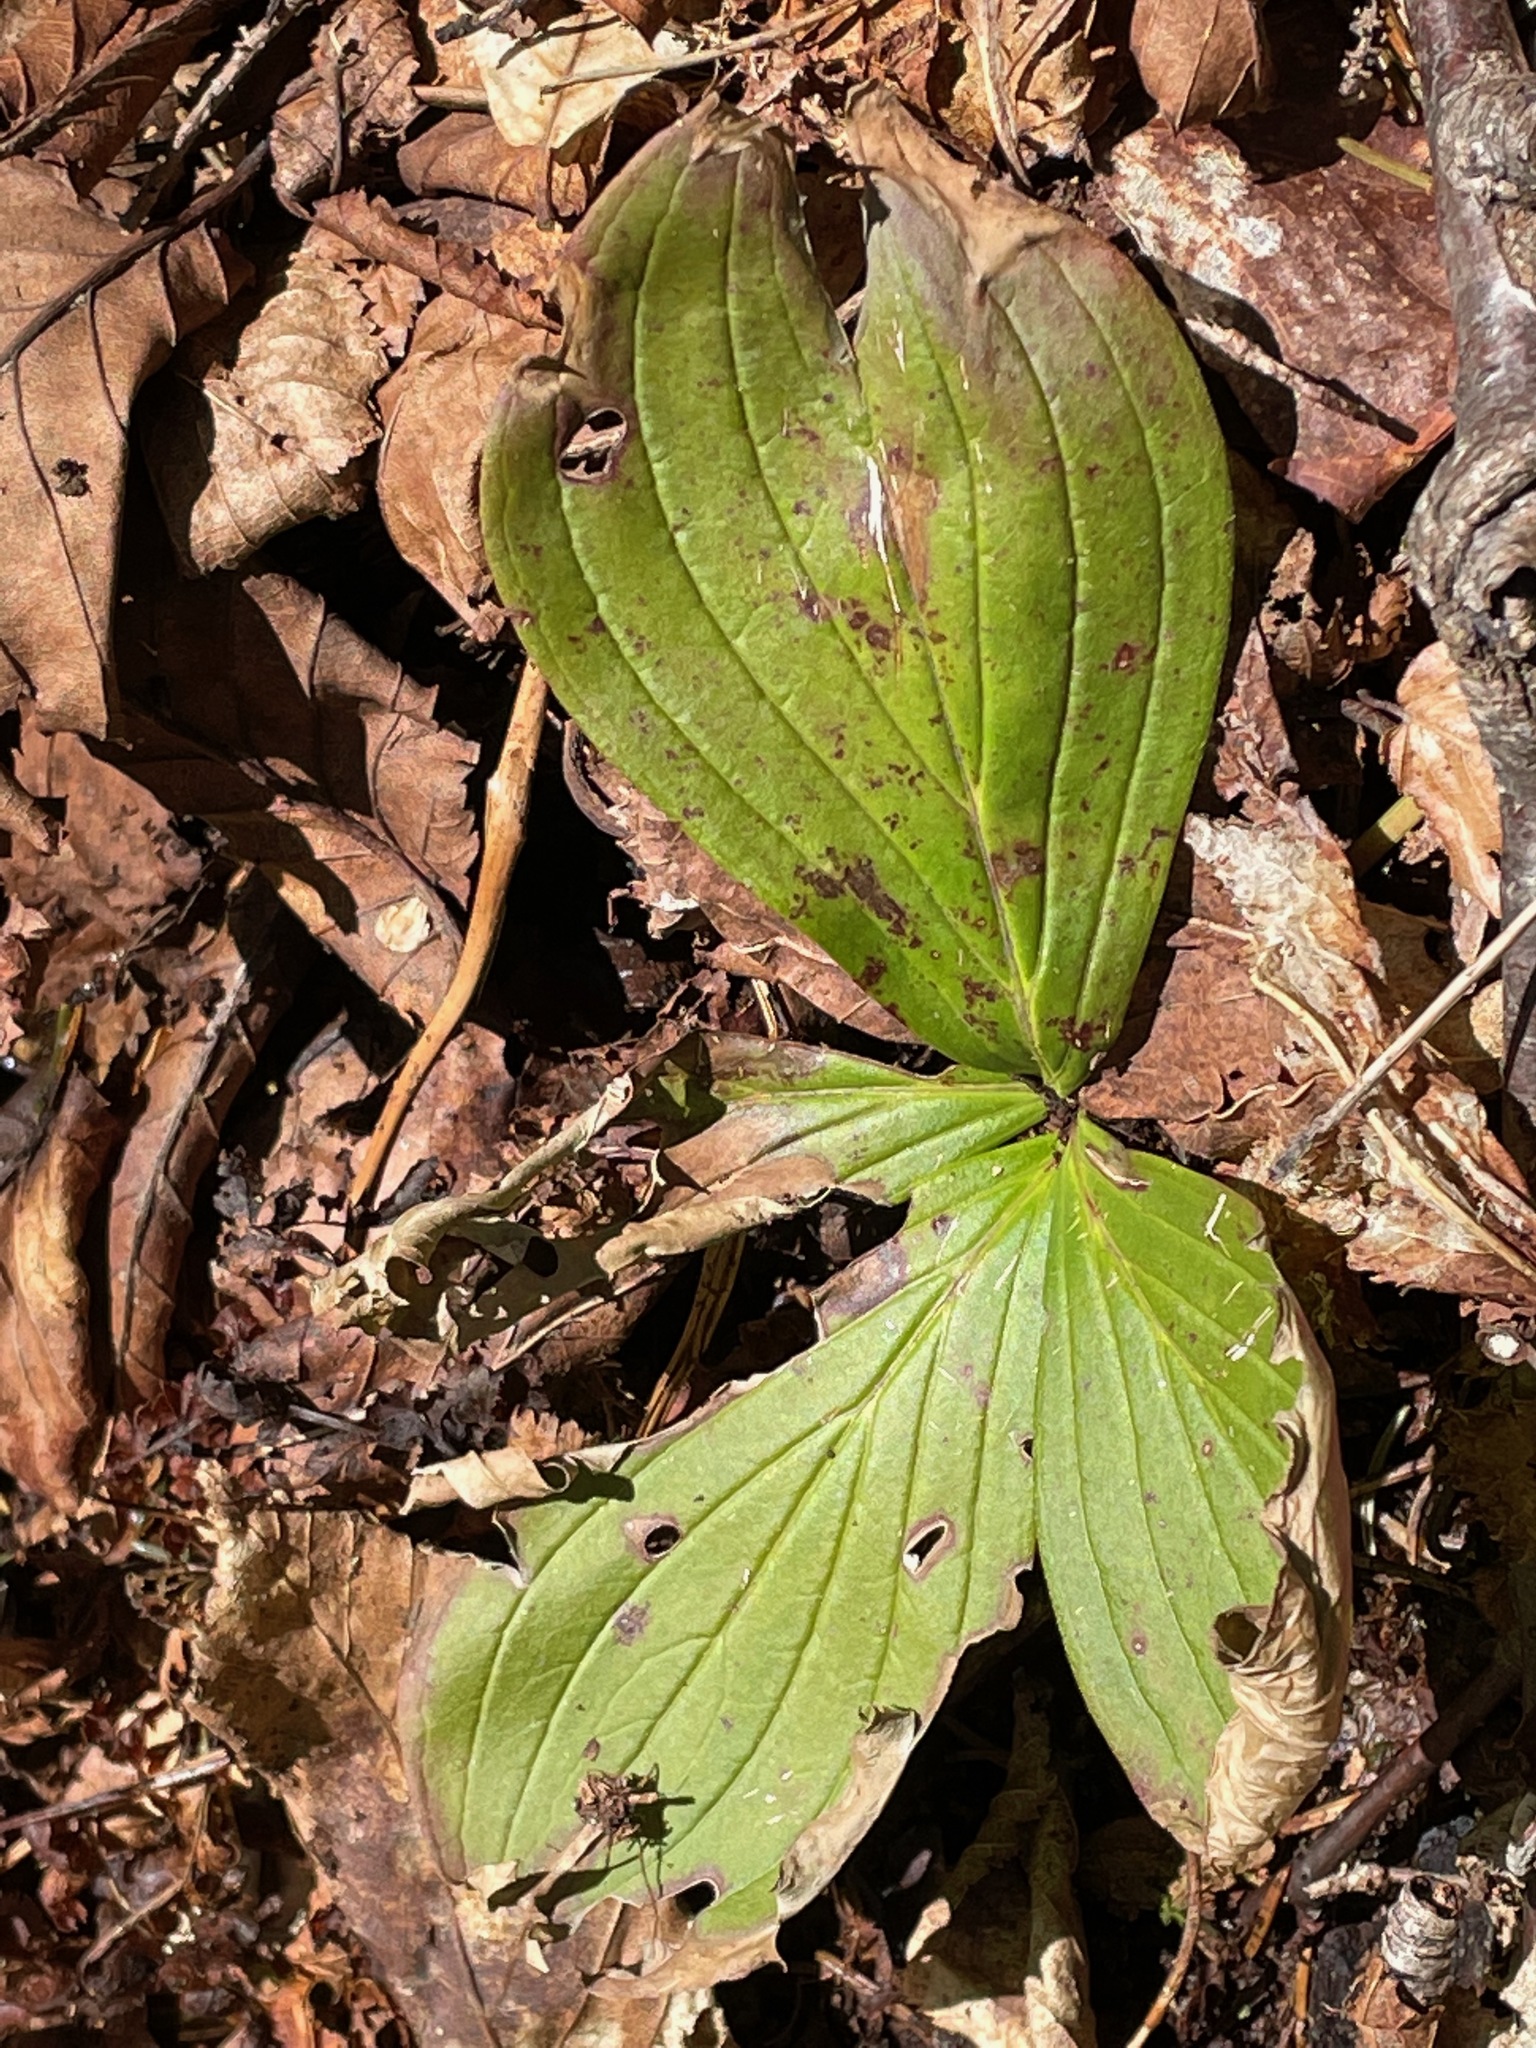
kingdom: Plantae
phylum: Tracheophyta
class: Magnoliopsida
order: Cornales
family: Cornaceae
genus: Cornus
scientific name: Cornus canadensis
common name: Creeping dogwood
